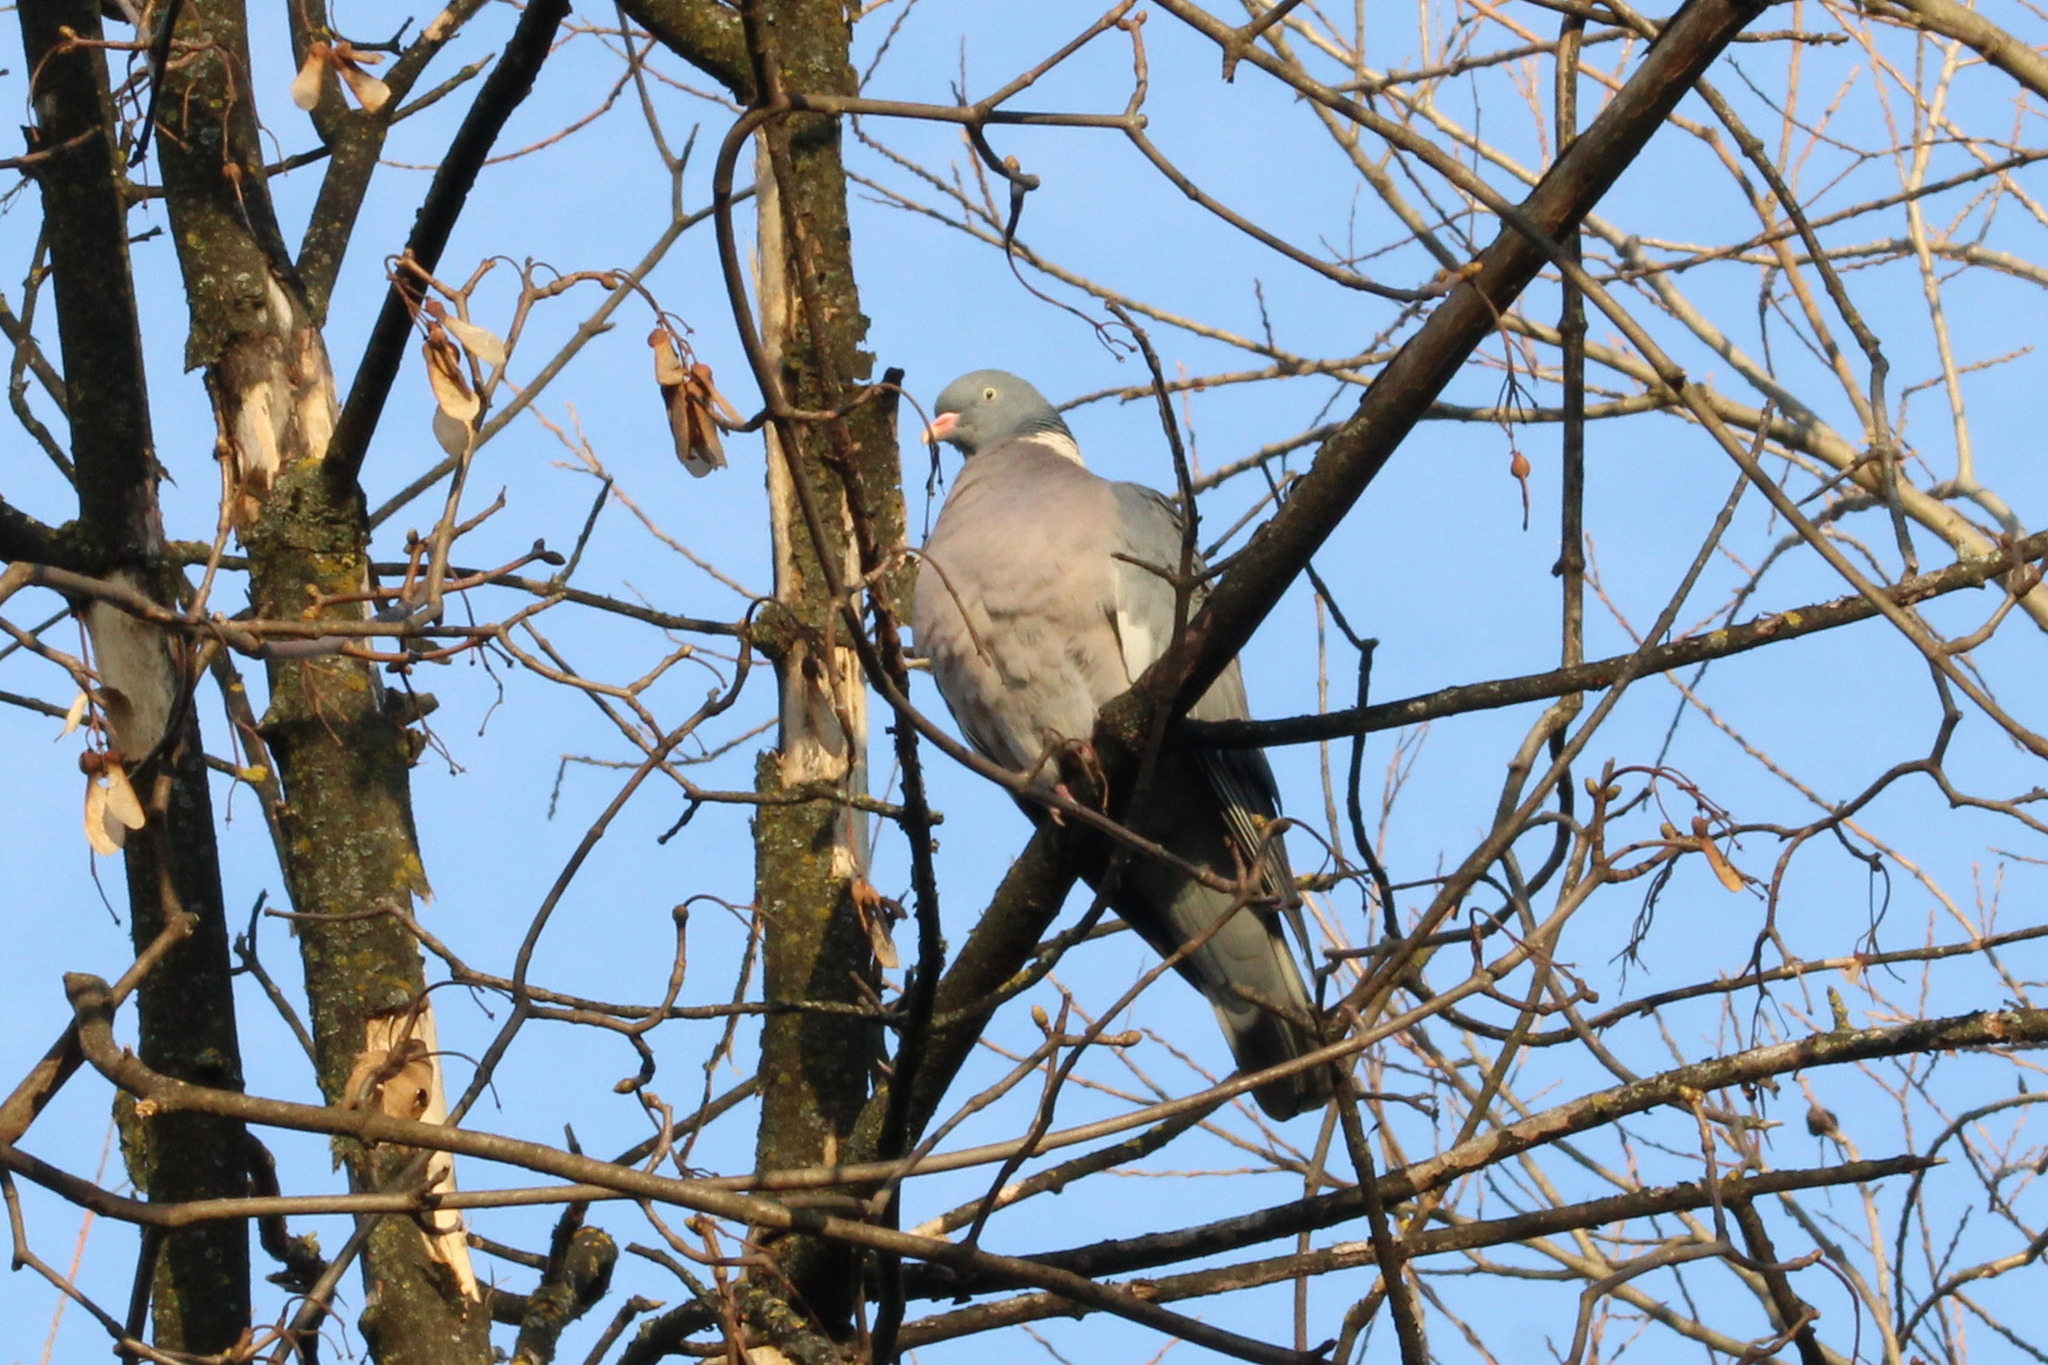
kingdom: Animalia
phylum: Chordata
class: Aves
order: Columbiformes
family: Columbidae
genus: Columba
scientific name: Columba palumbus
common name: Common wood pigeon
